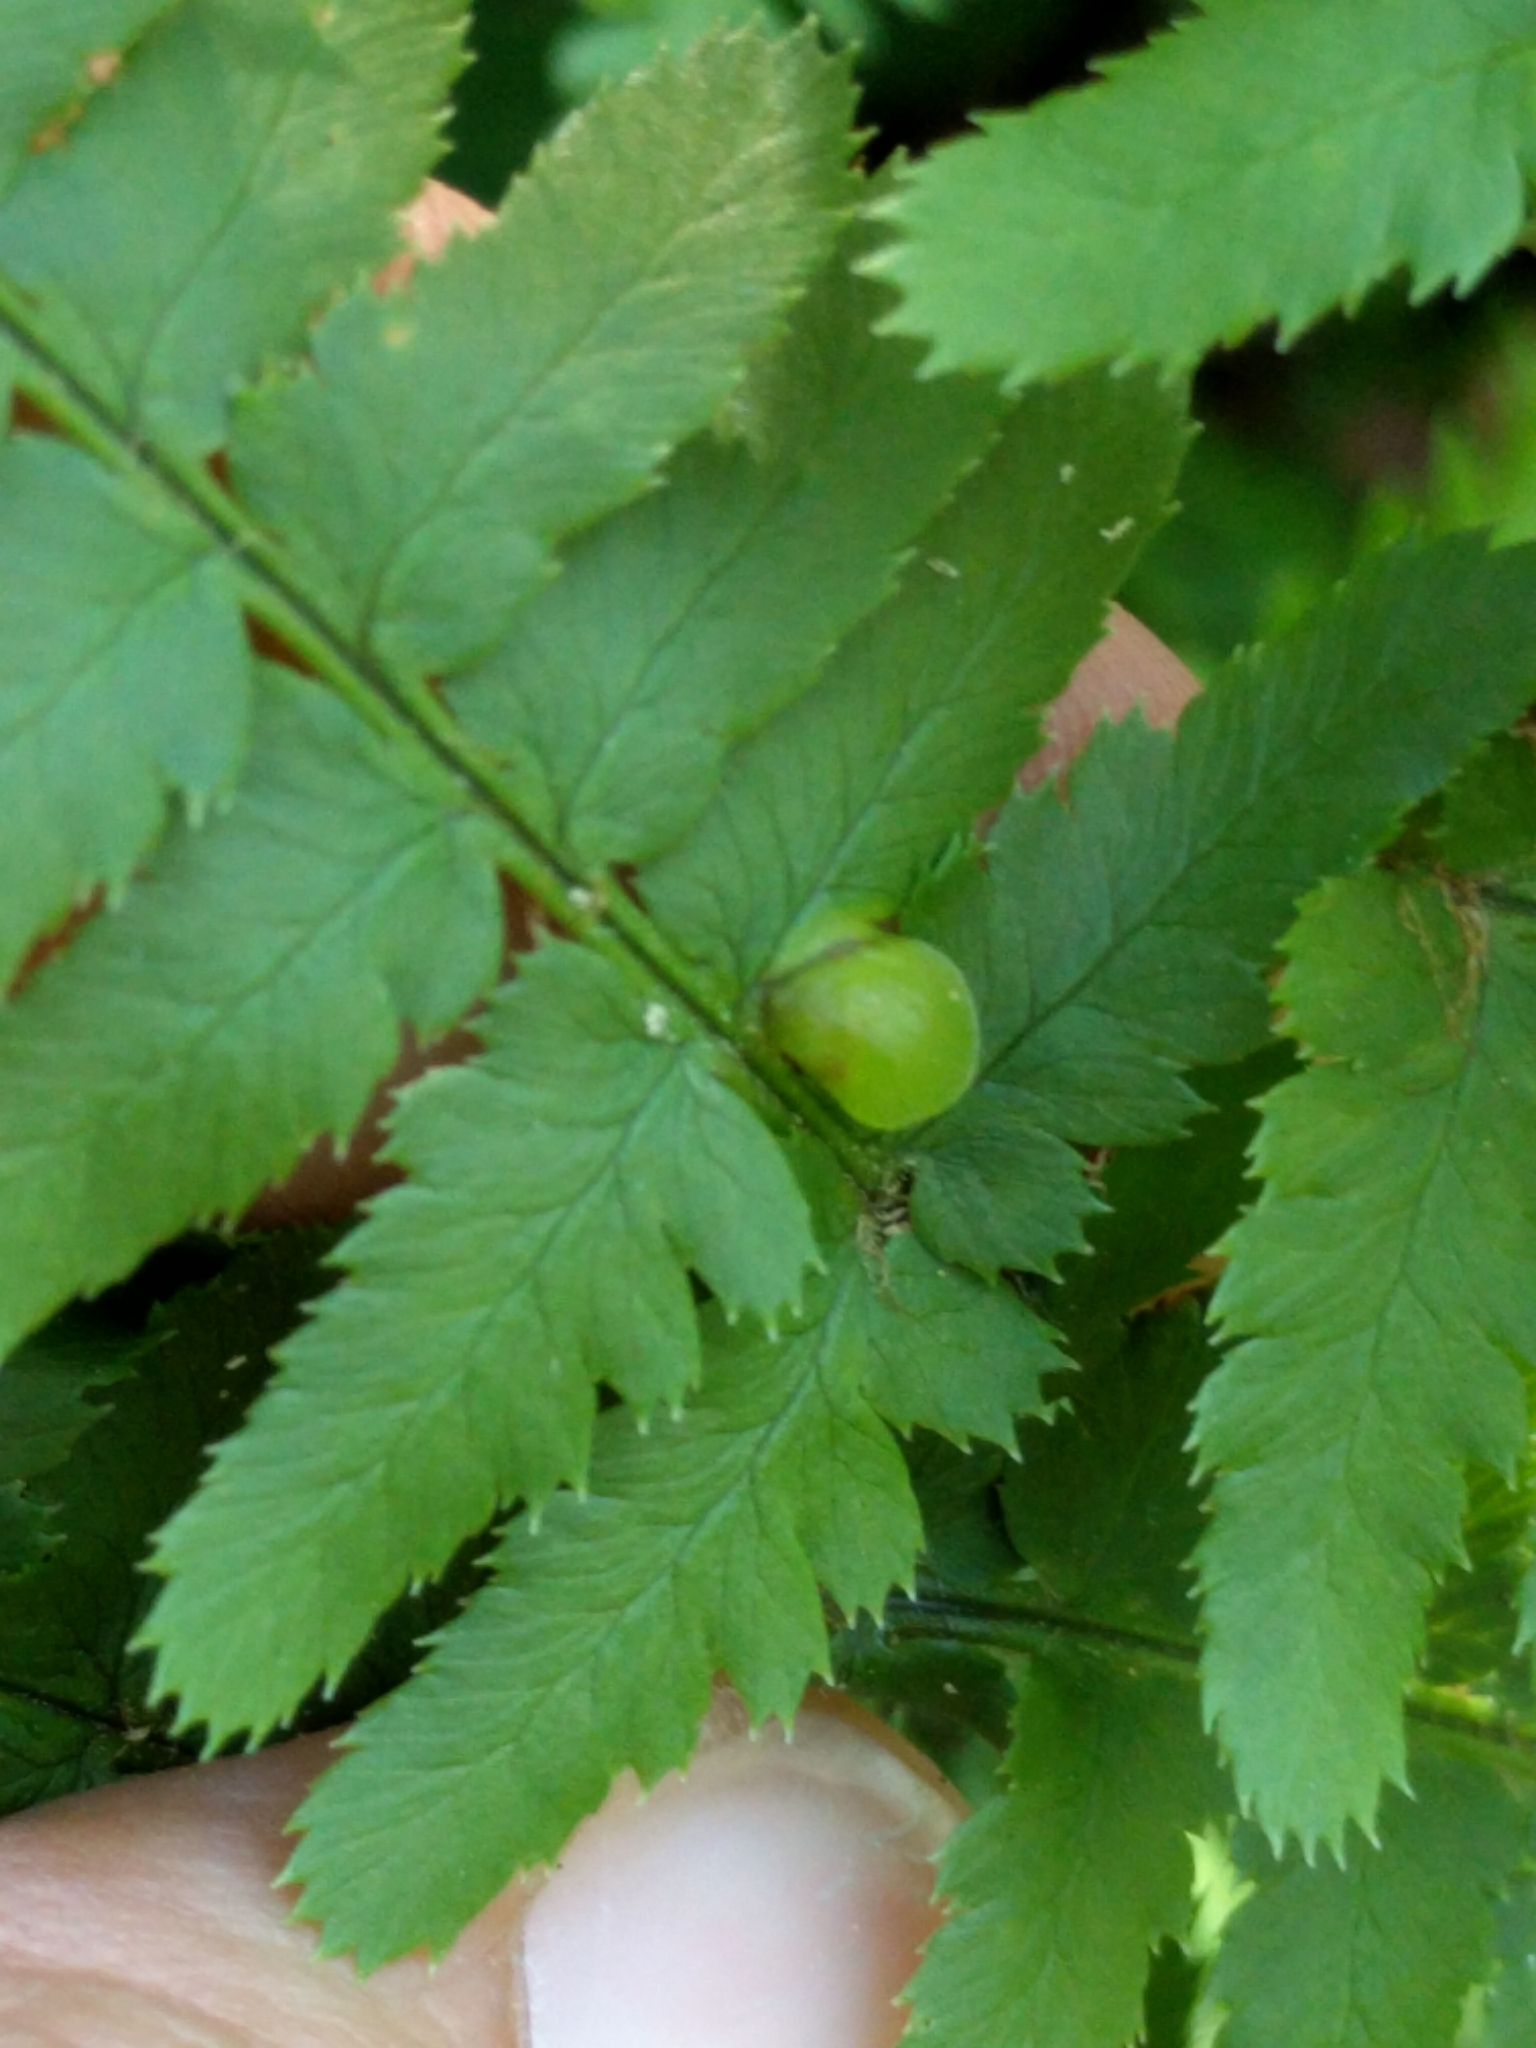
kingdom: Fungi
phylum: Ascomycota
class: Taphrinomycetes
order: Taphrinales
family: Taphrinaceae
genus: Taphrina
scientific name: Taphrina californica
